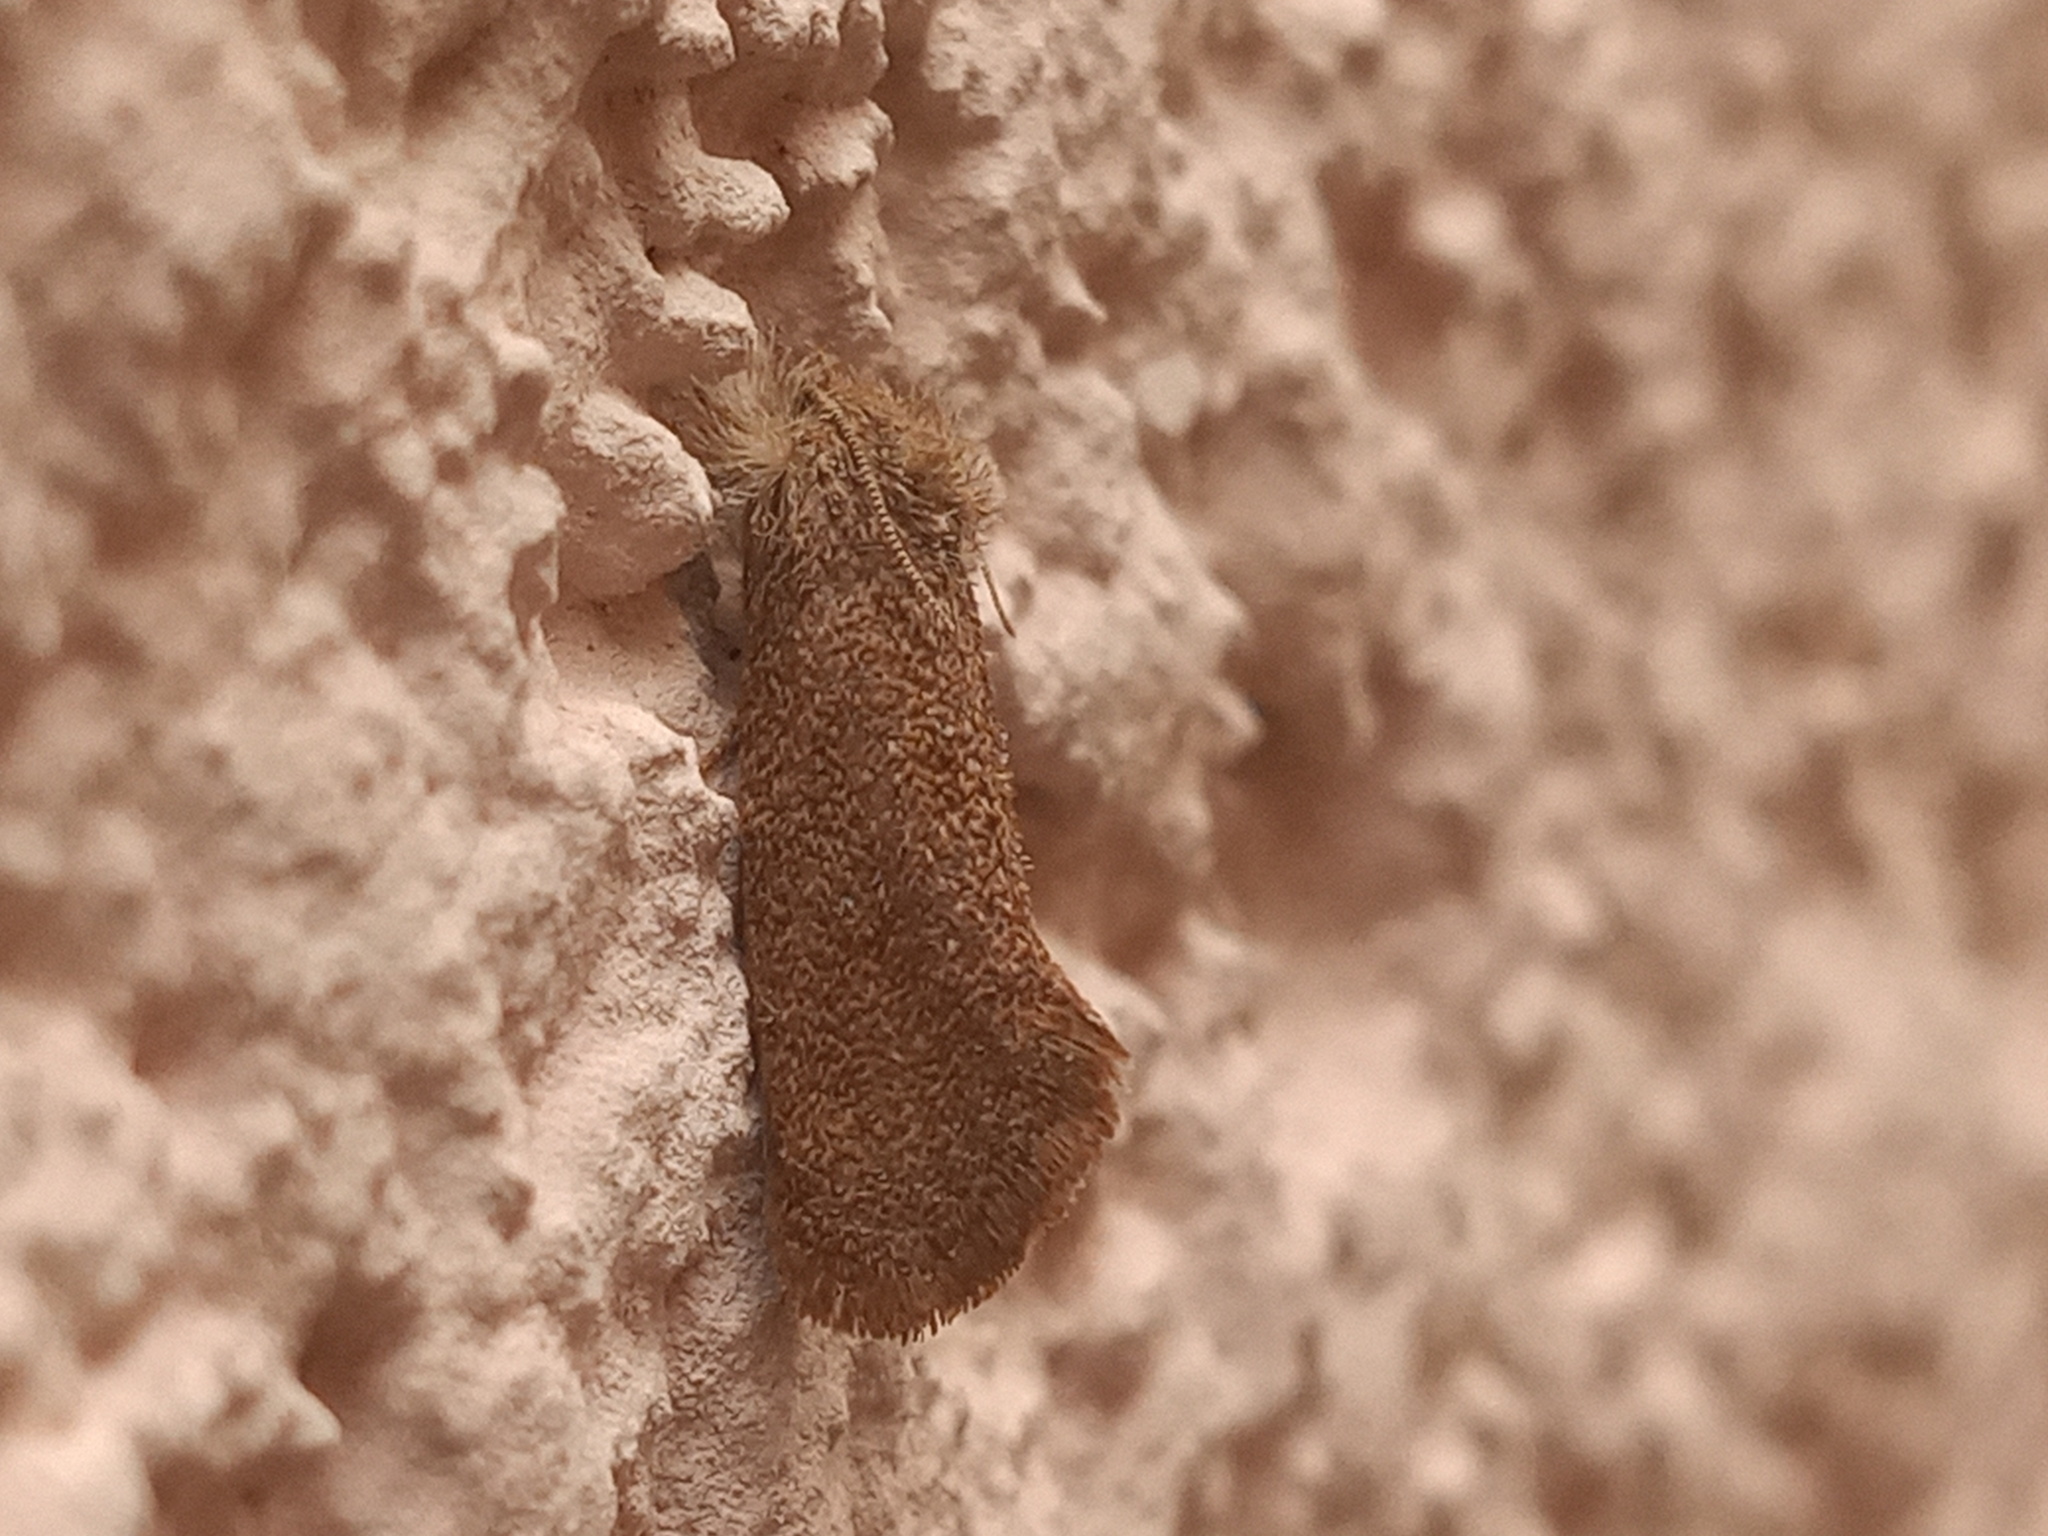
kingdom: Animalia
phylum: Arthropoda
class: Insecta
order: Lepidoptera
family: Tineidae
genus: Acrolophus
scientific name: Acrolophus heppneri
